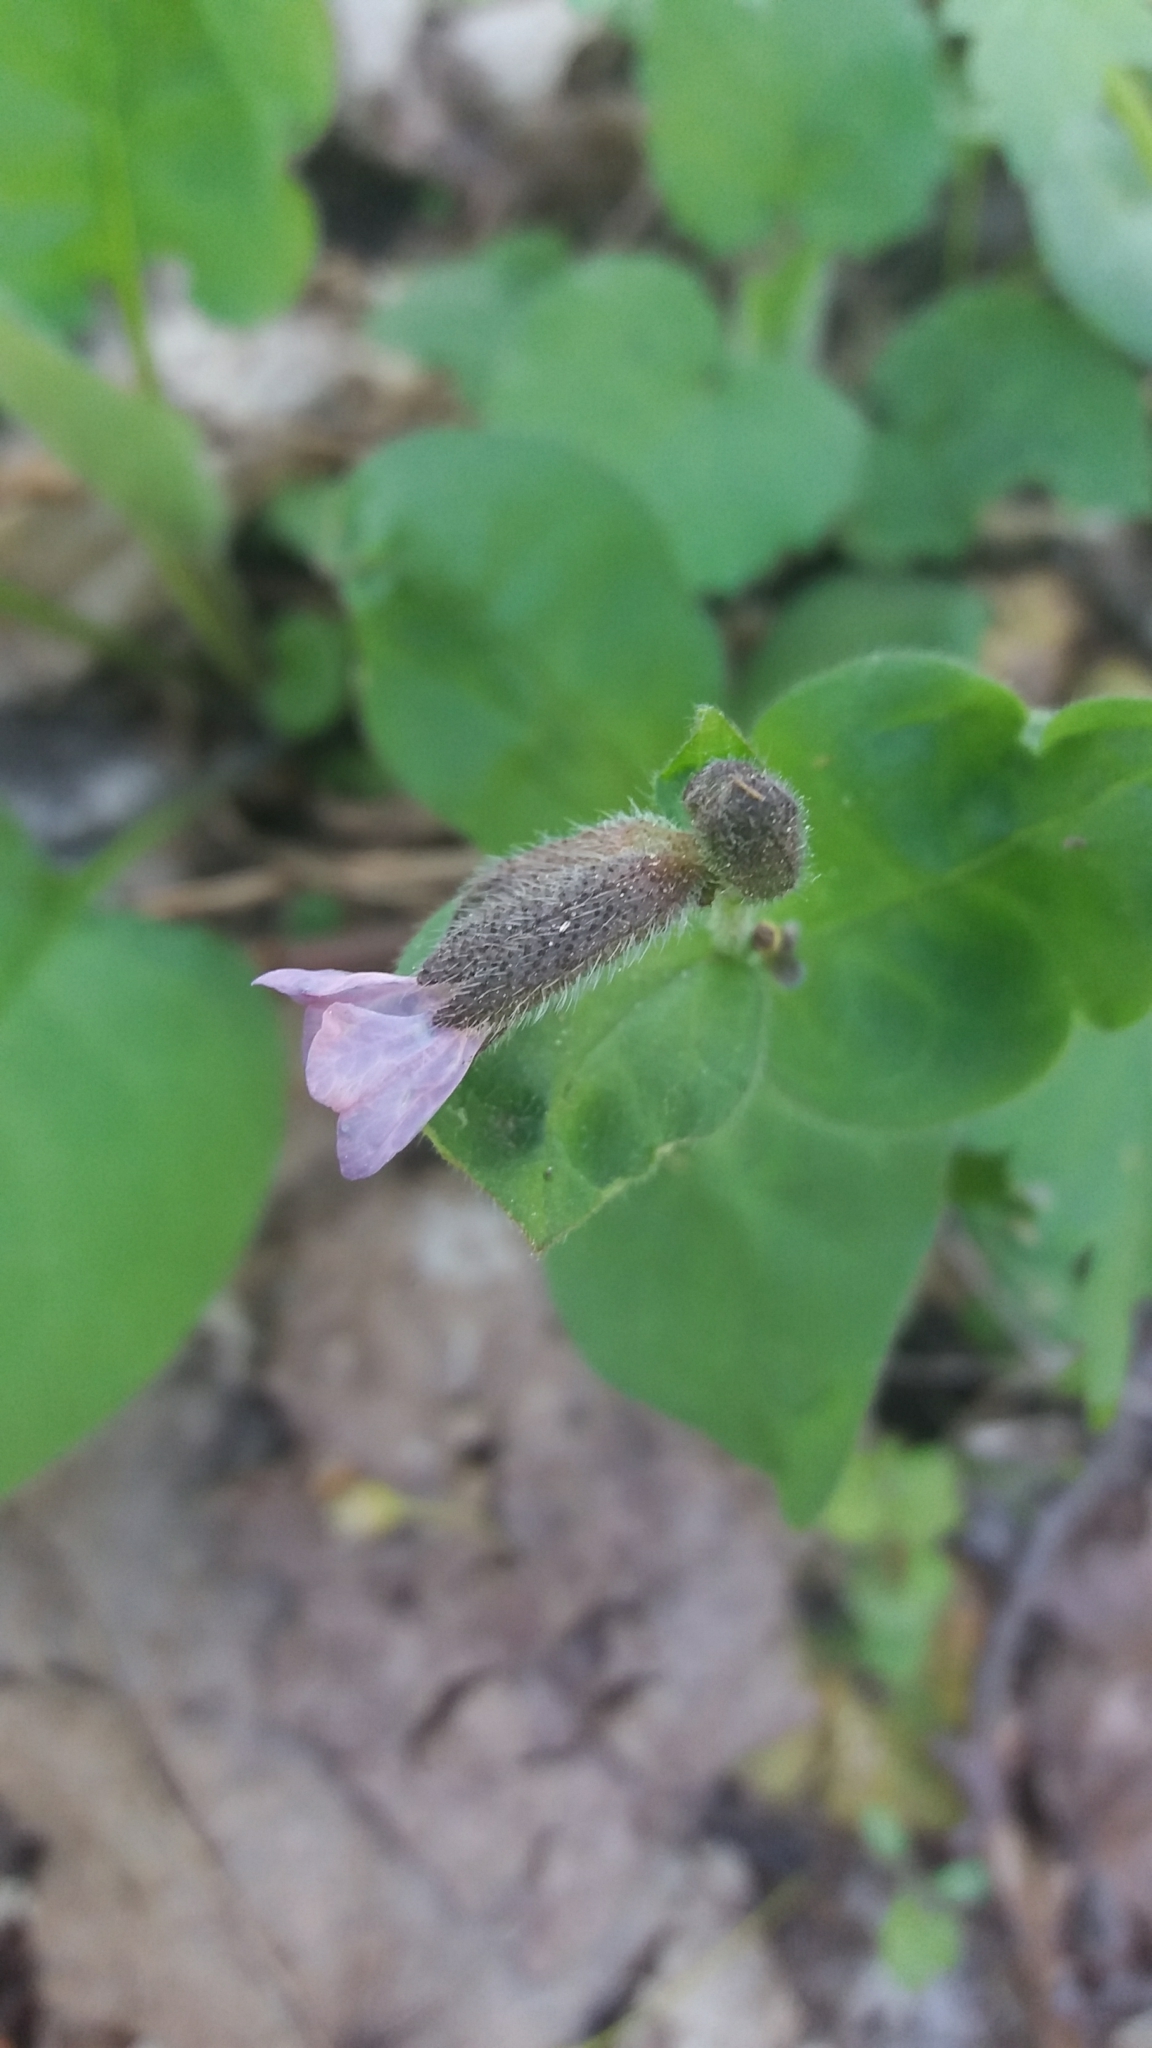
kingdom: Plantae
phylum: Tracheophyta
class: Magnoliopsida
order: Boraginales
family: Boraginaceae
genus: Pulmonaria
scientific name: Pulmonaria obscura
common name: Suffolk lungwort
